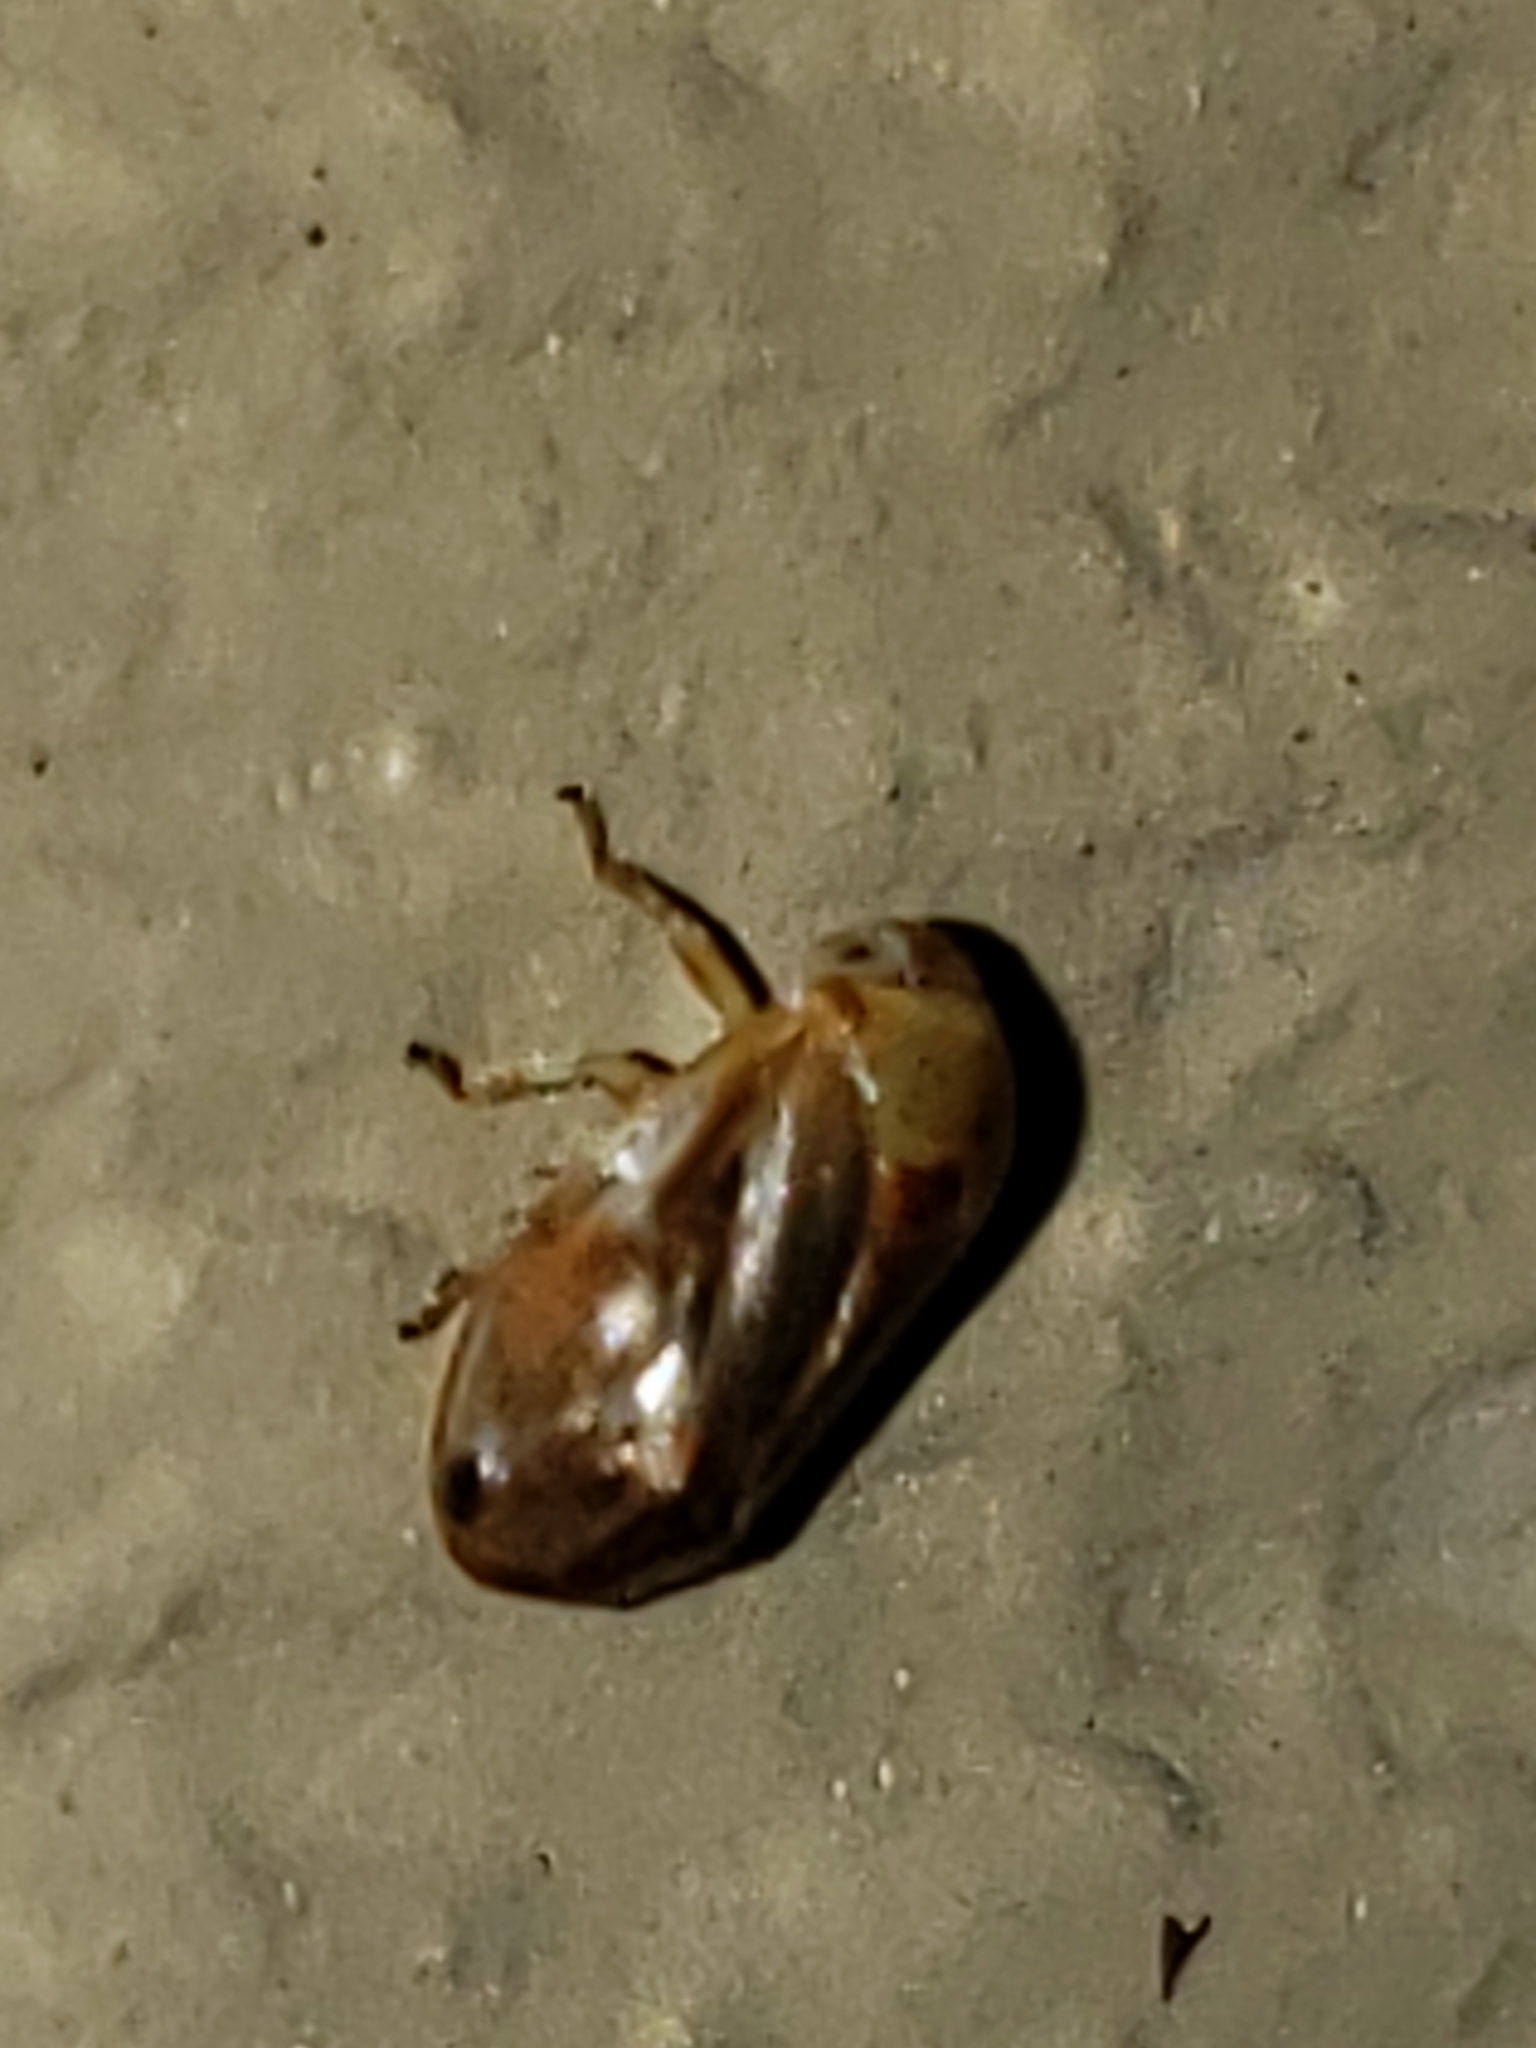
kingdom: Animalia
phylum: Arthropoda
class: Insecta
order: Hemiptera
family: Clastopteridae
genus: Clastoptera
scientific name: Clastoptera testacea
